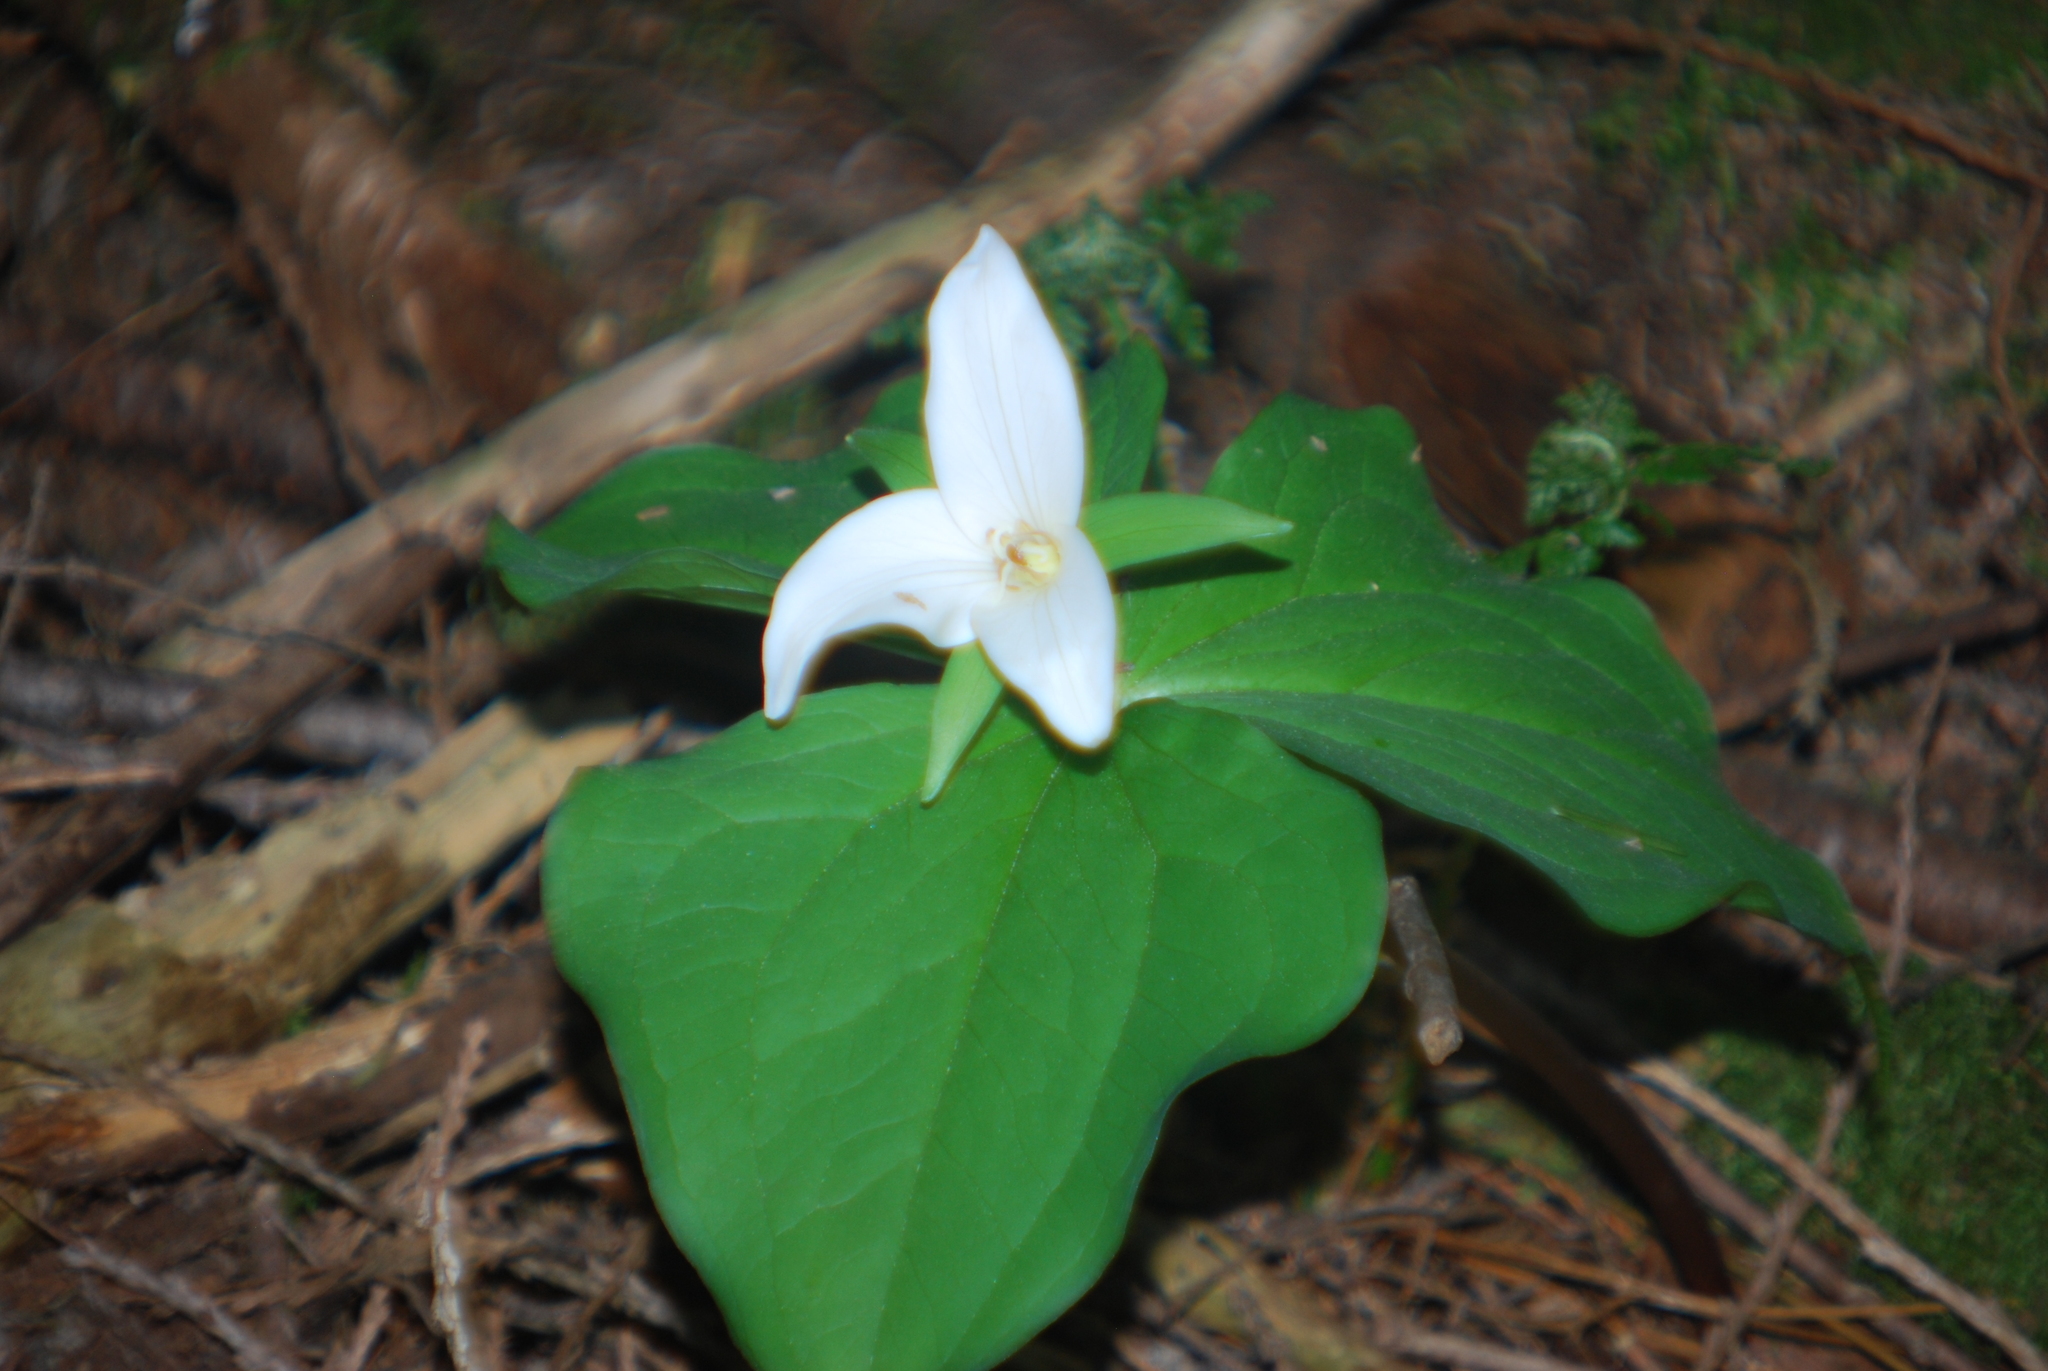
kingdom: Plantae
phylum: Tracheophyta
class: Liliopsida
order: Liliales
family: Melanthiaceae
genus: Trillium
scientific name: Trillium ovatum
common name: Pacific trillium
